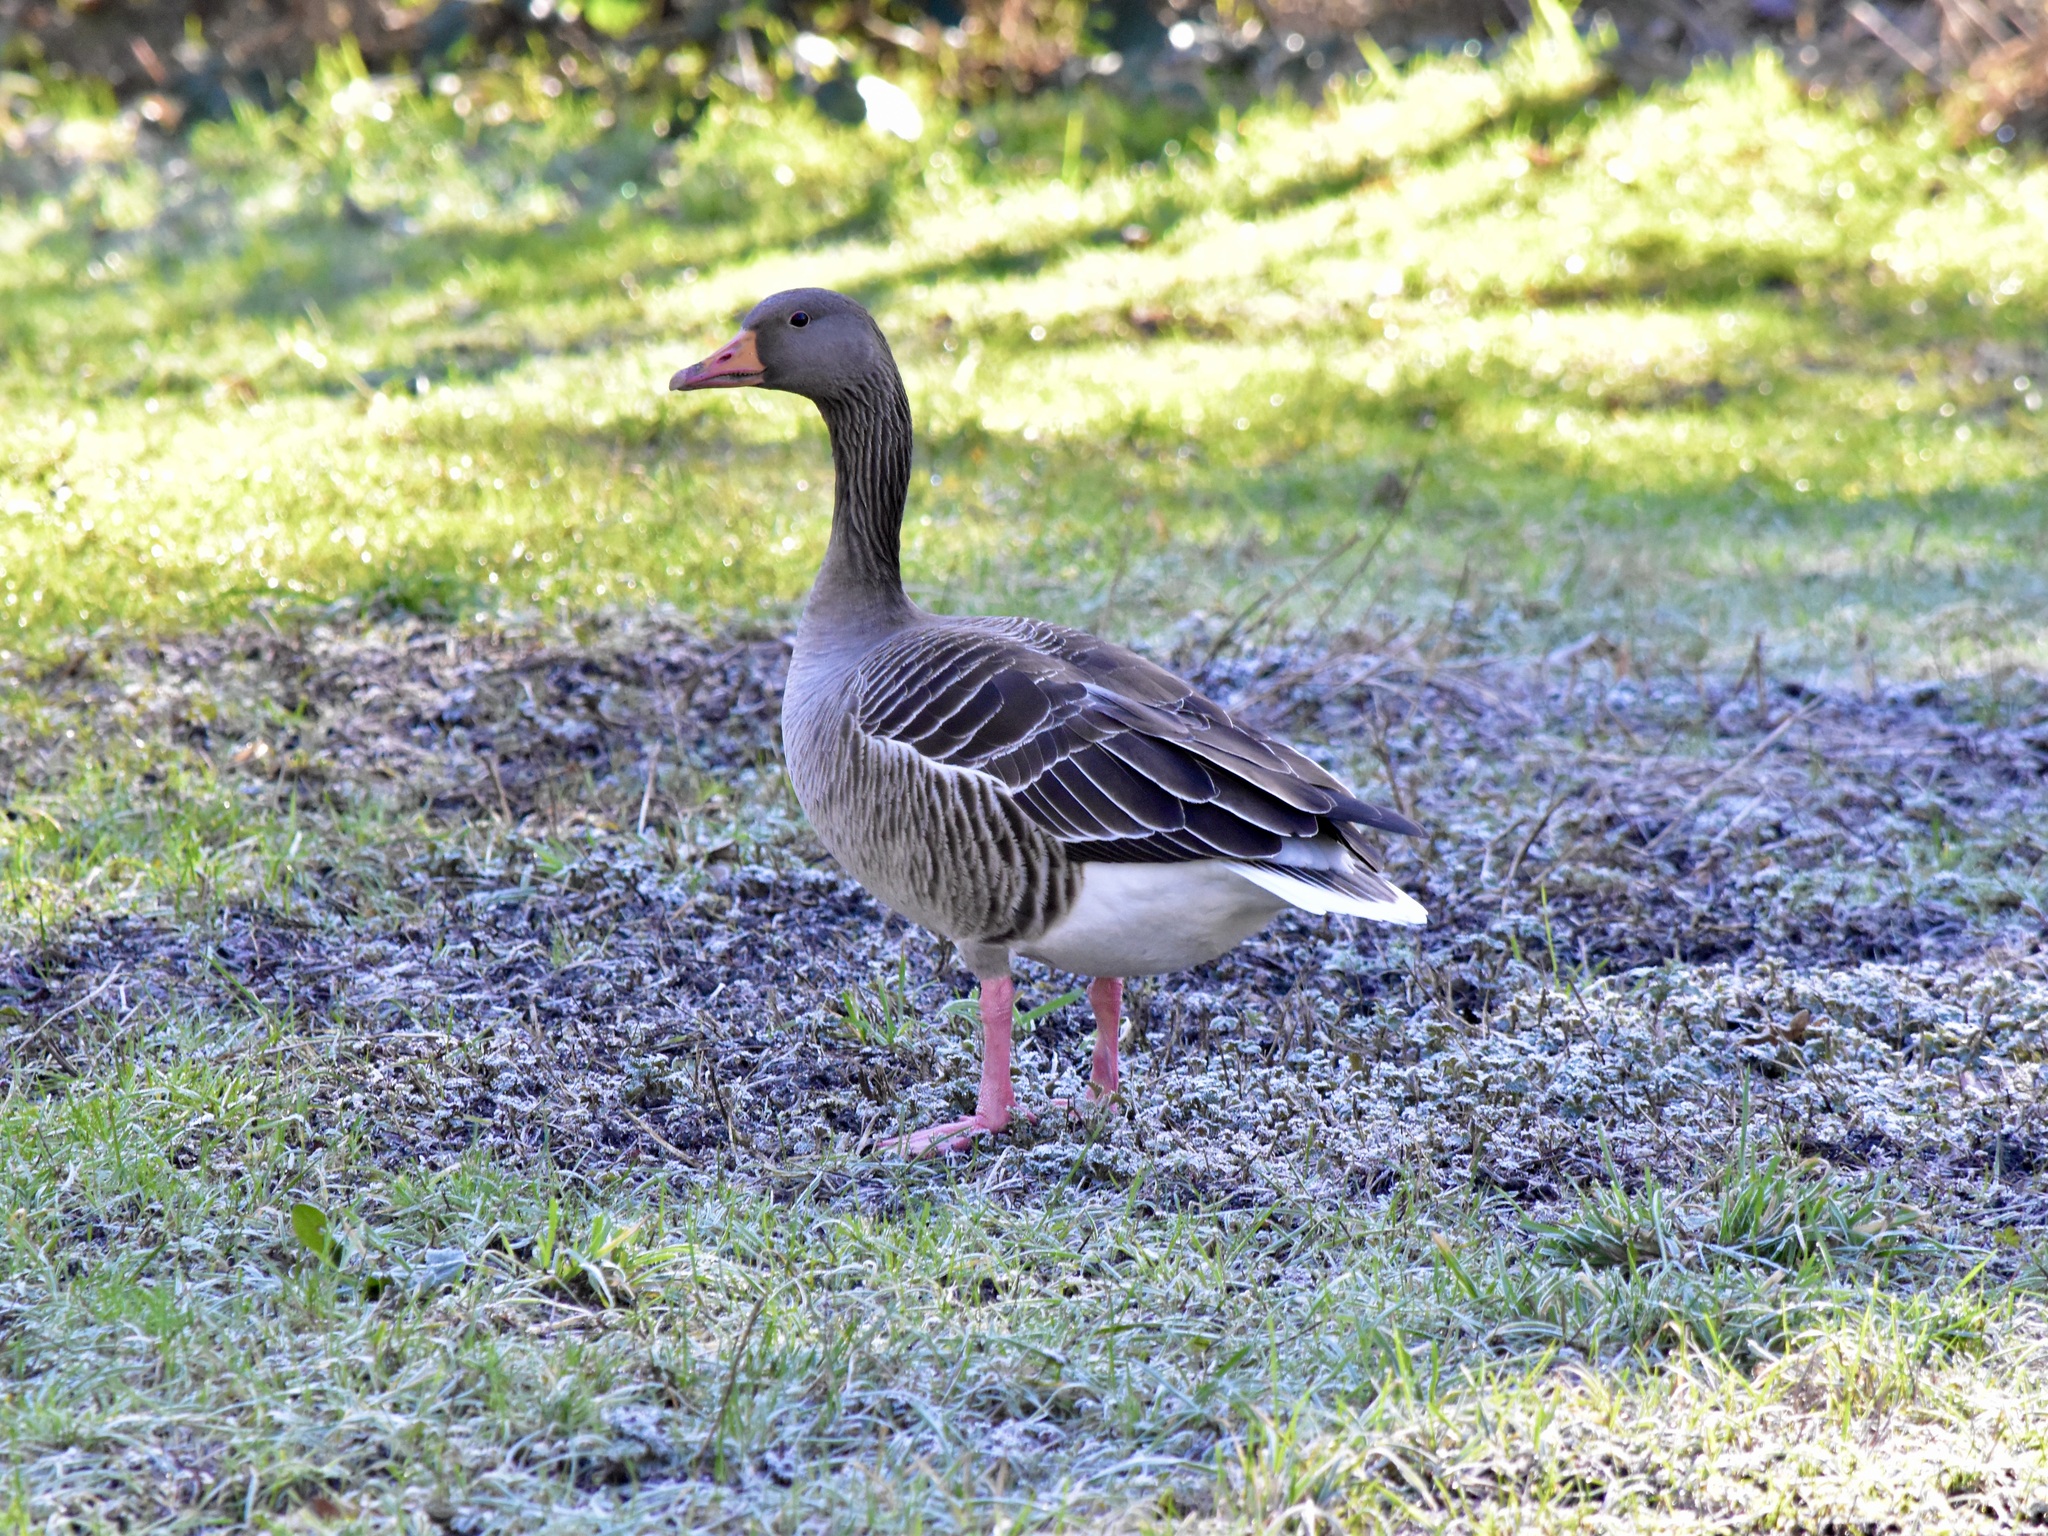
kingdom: Animalia
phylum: Chordata
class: Aves
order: Anseriformes
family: Anatidae
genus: Anser
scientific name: Anser anser
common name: Greylag goose
